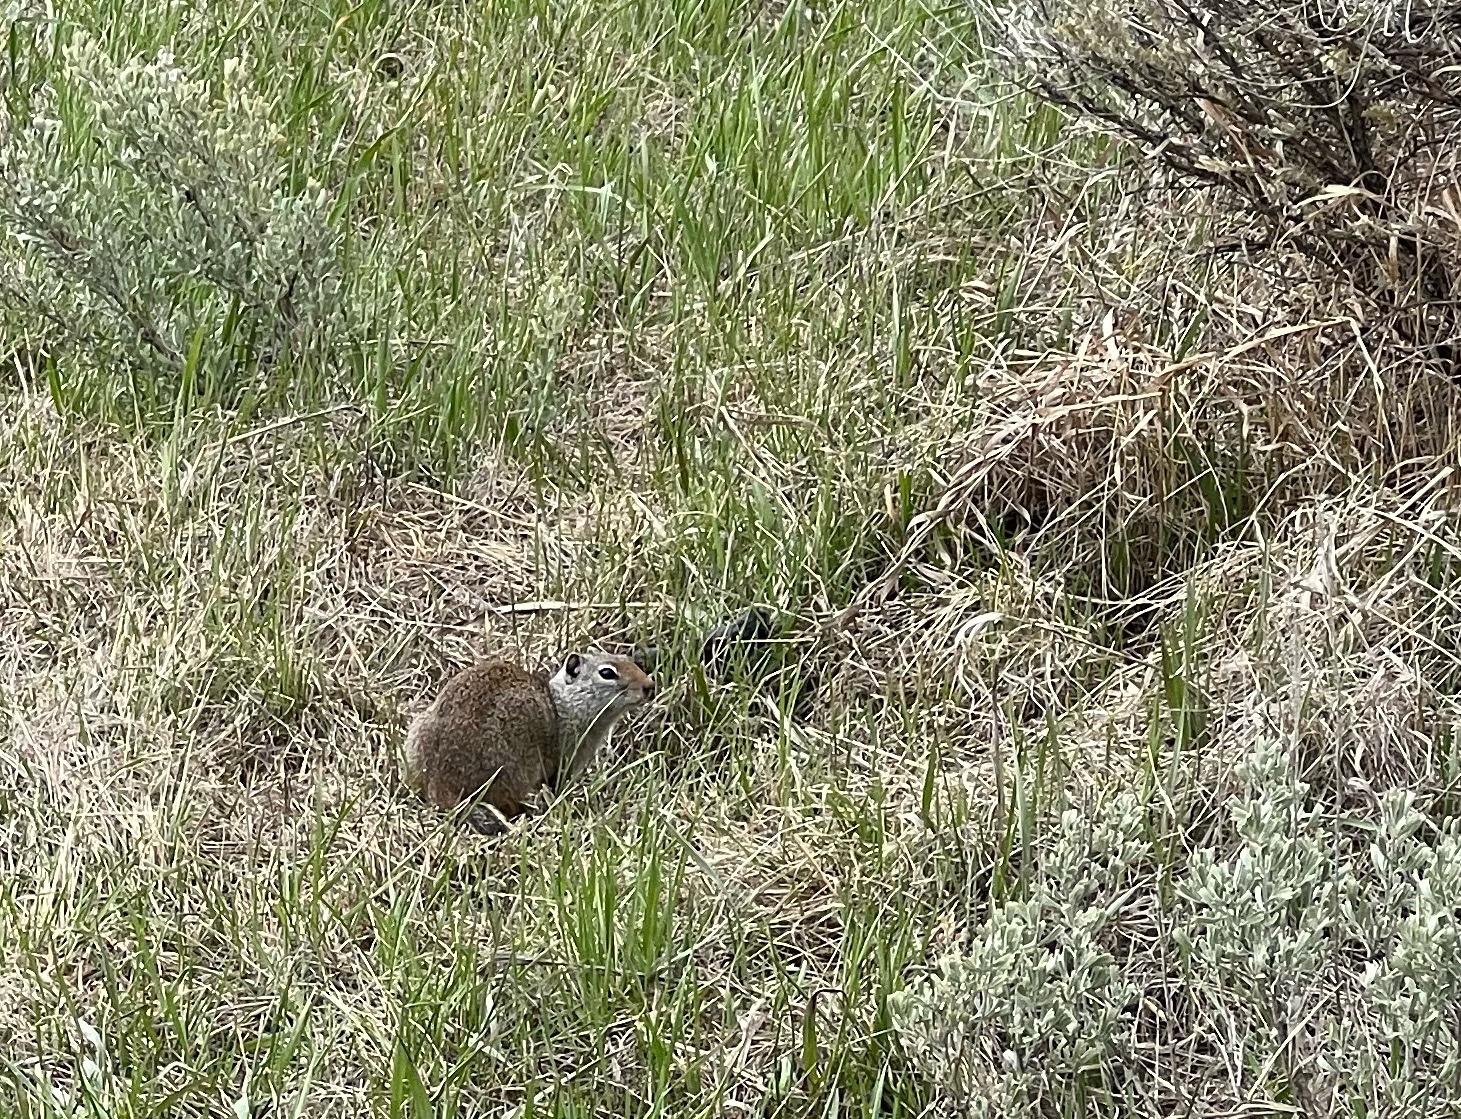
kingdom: Animalia
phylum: Chordata
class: Mammalia
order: Rodentia
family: Sciuridae
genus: Urocitellus
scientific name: Urocitellus armatus
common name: Uinta ground squirrel
